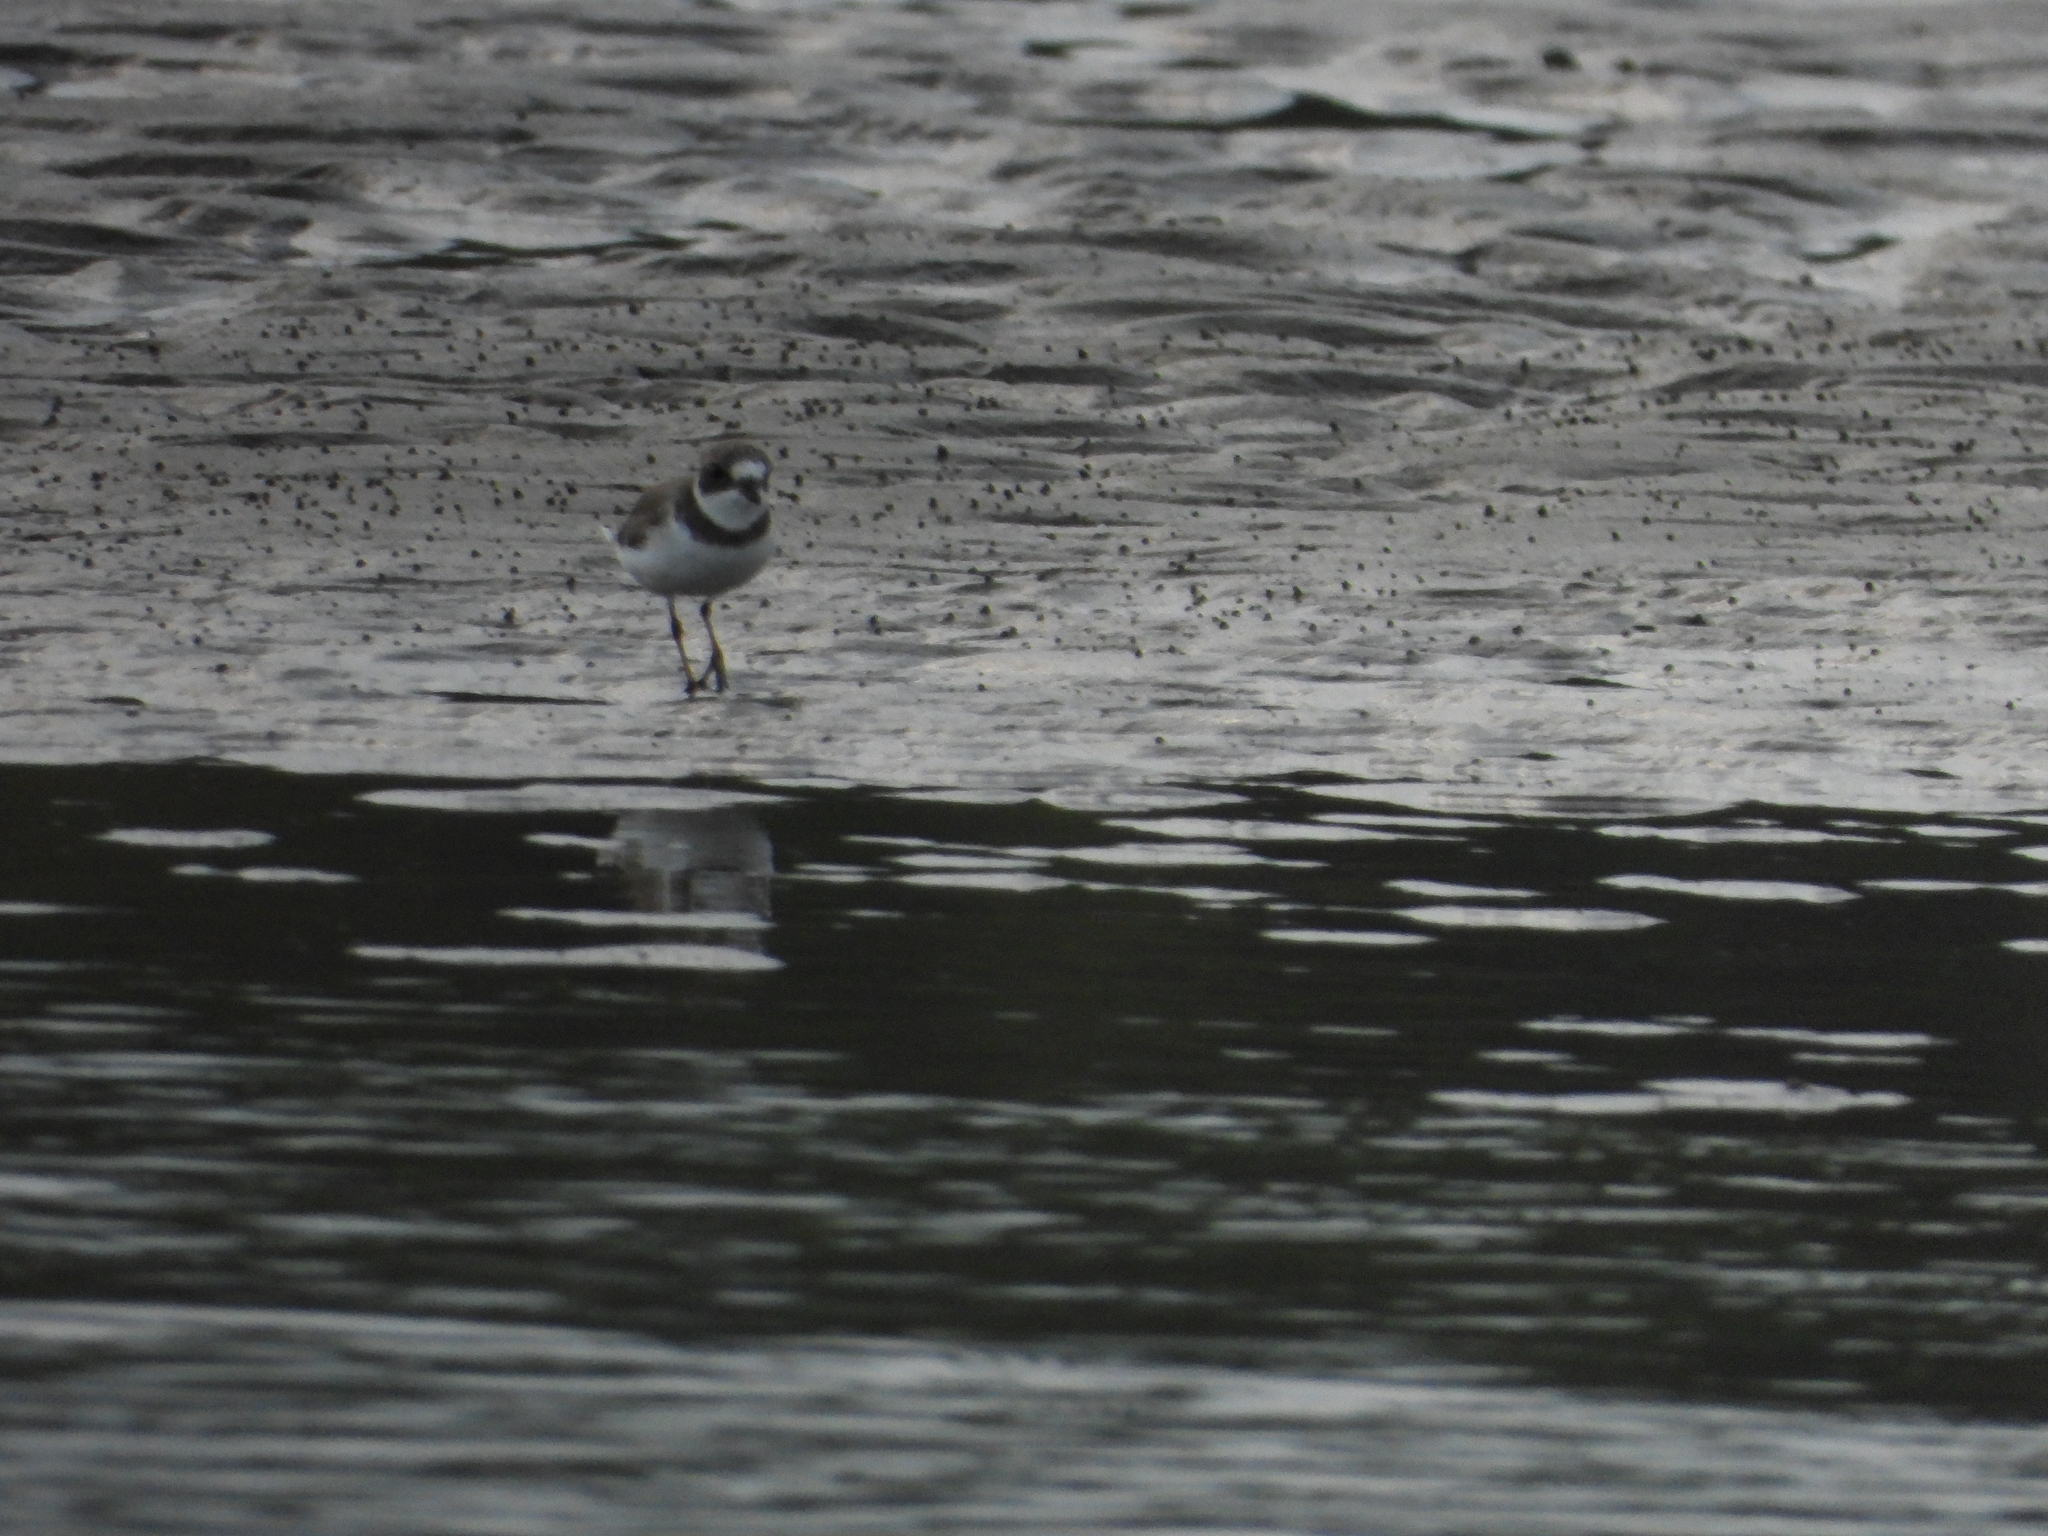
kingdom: Animalia
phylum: Chordata
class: Aves
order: Charadriiformes
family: Charadriidae
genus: Charadrius
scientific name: Charadrius semipalmatus
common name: Semipalmated plover
